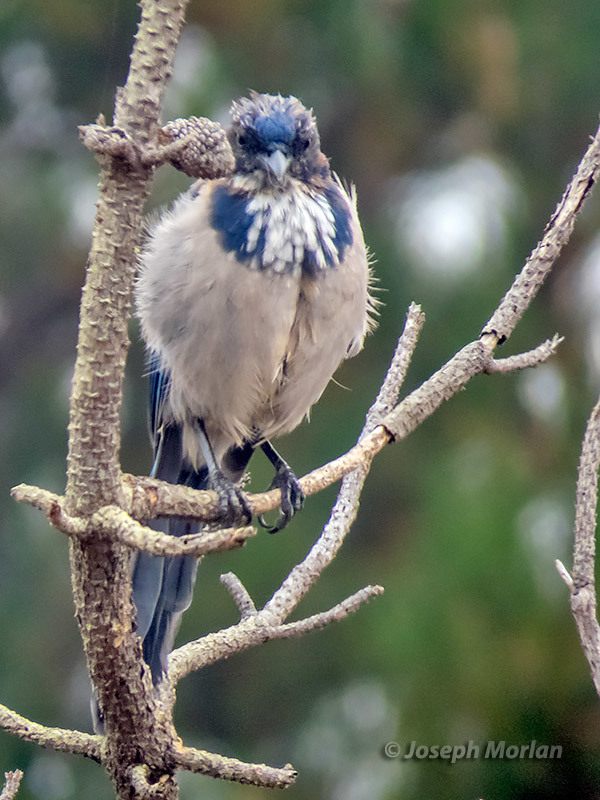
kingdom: Animalia
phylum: Chordata
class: Aves
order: Passeriformes
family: Corvidae
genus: Aphelocoma
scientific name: Aphelocoma californica
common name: California scrub-jay
